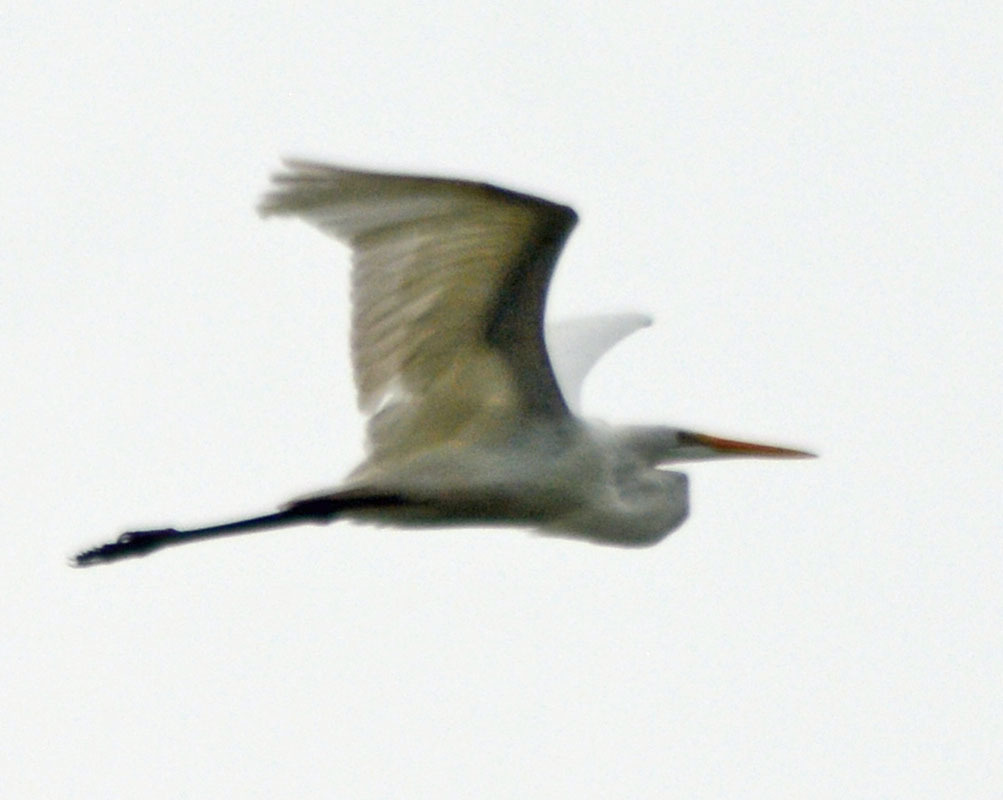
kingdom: Animalia
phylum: Chordata
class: Aves
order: Pelecaniformes
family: Ardeidae
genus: Ardea
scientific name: Ardea alba
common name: Great egret
